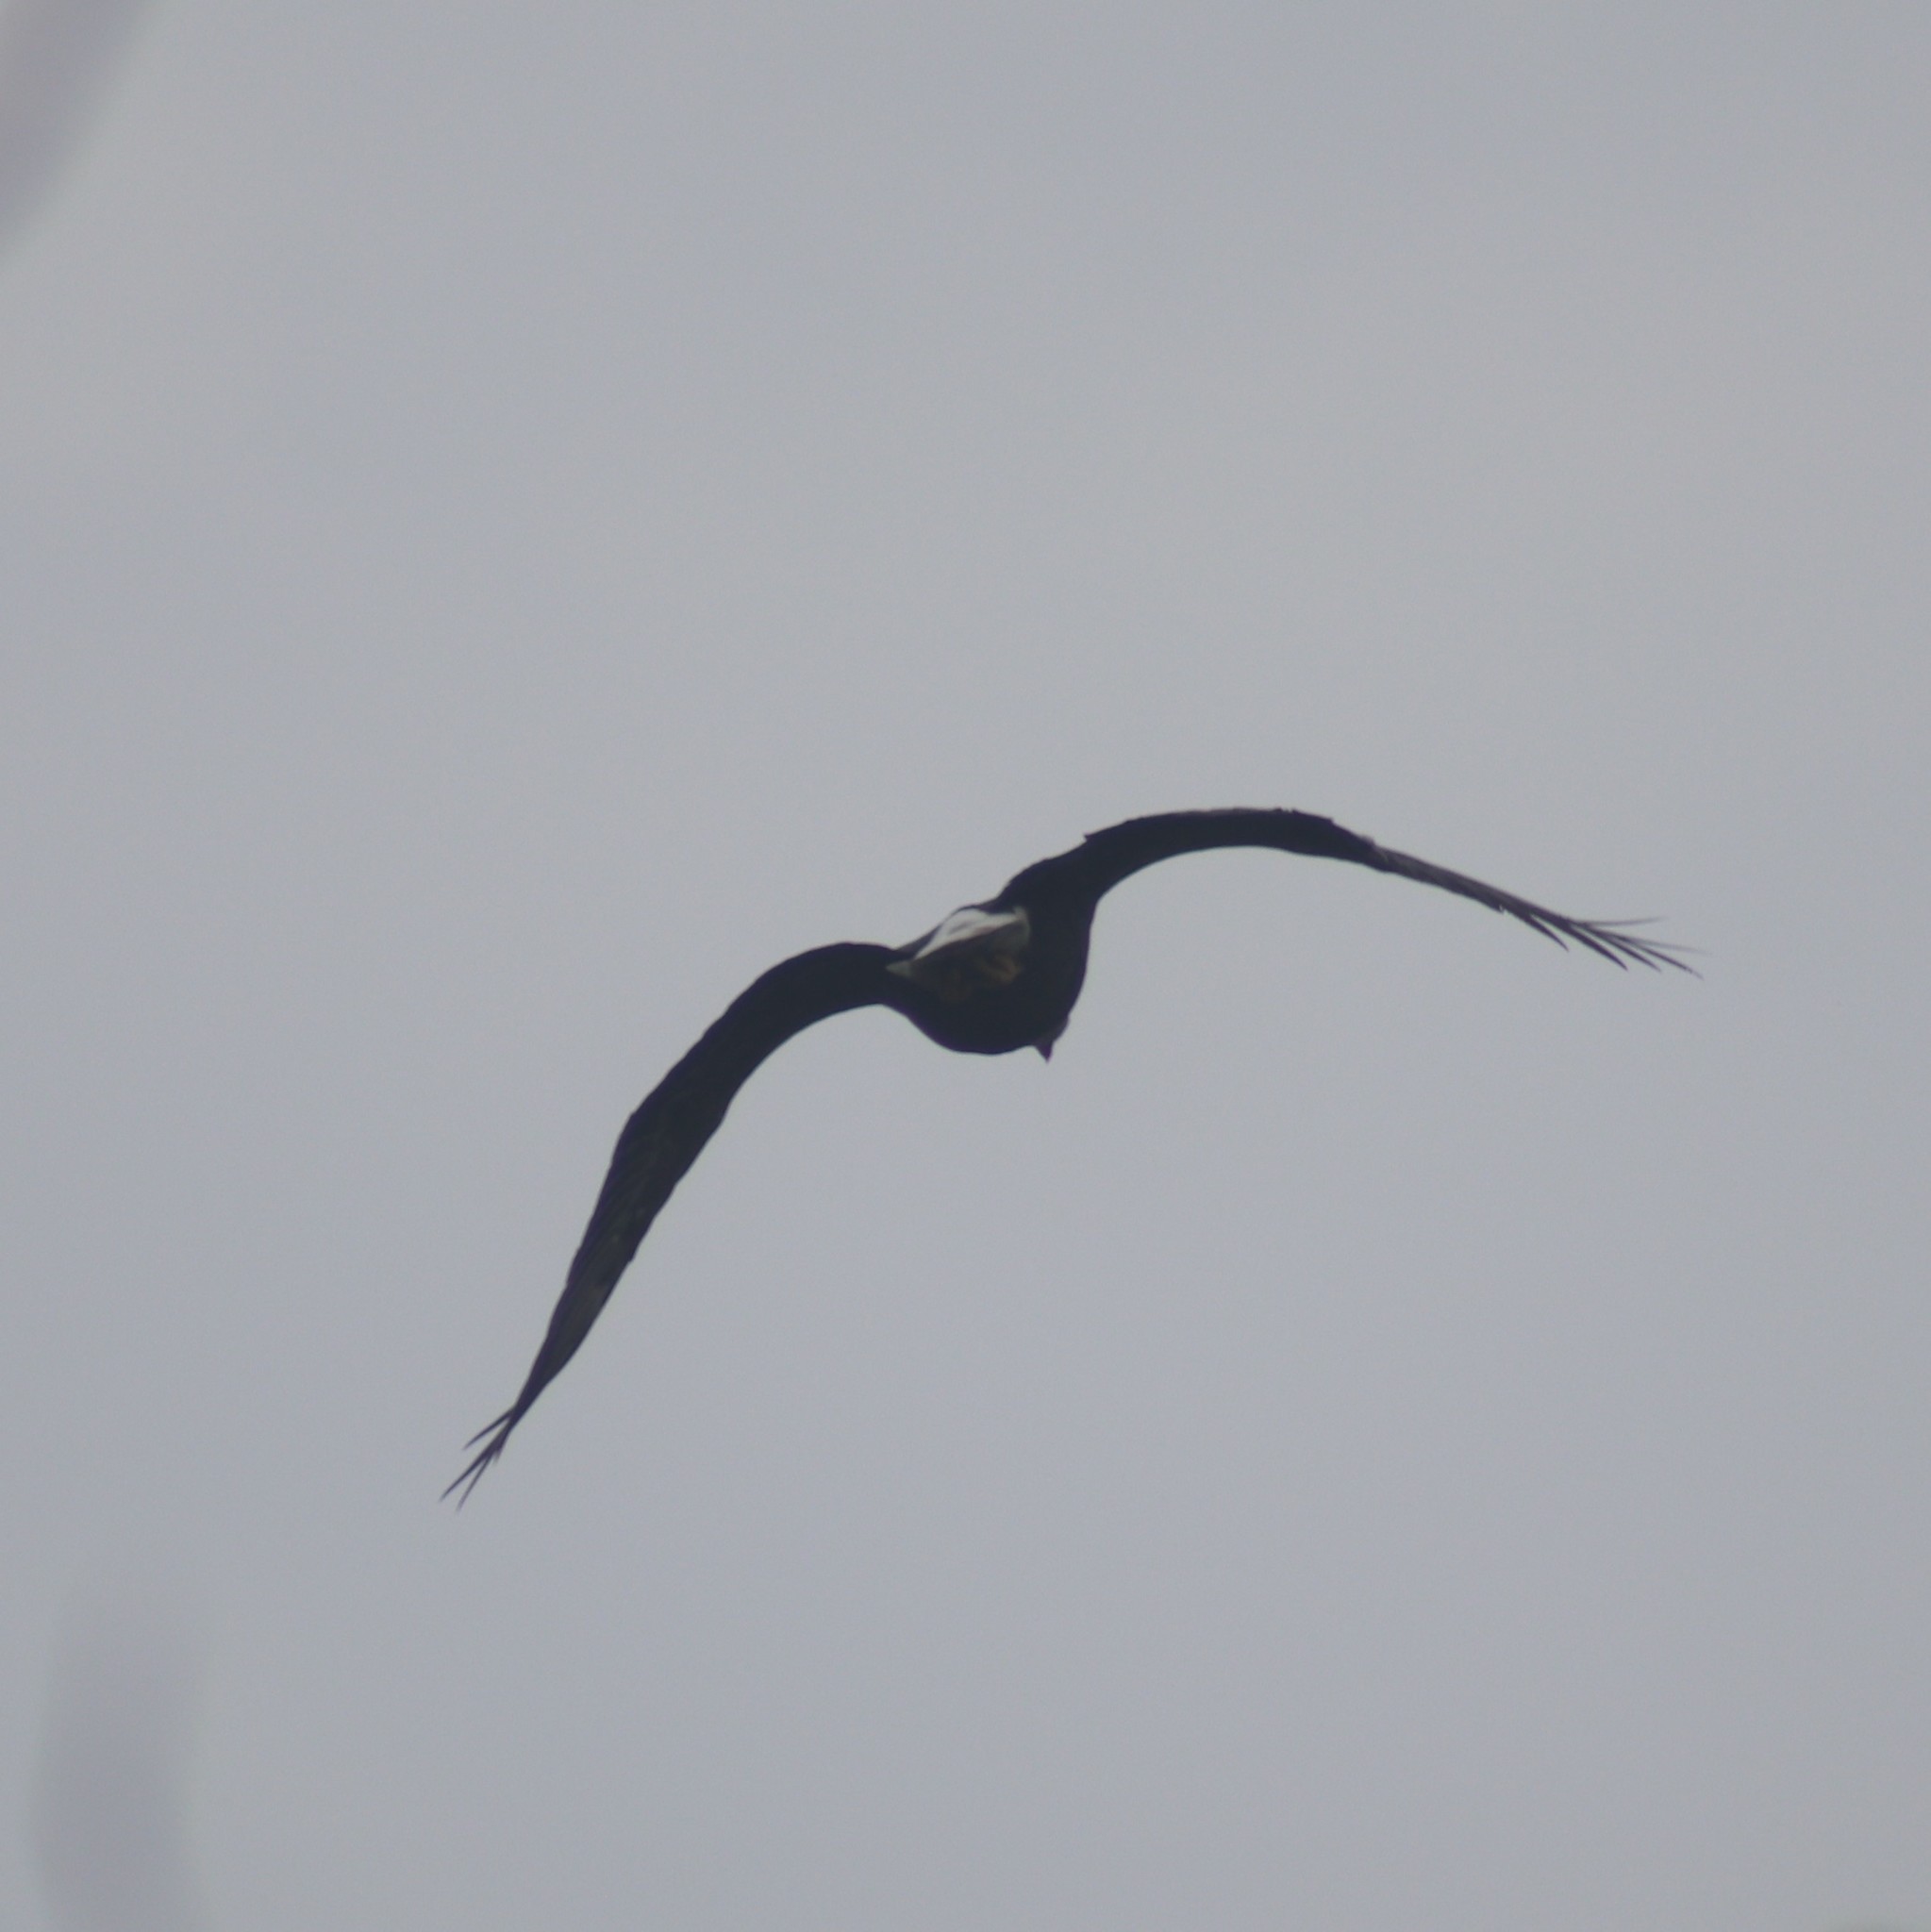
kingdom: Animalia
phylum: Chordata
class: Aves
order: Accipitriformes
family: Accipitridae
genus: Haliaeetus
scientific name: Haliaeetus leucocephalus
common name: Bald eagle
